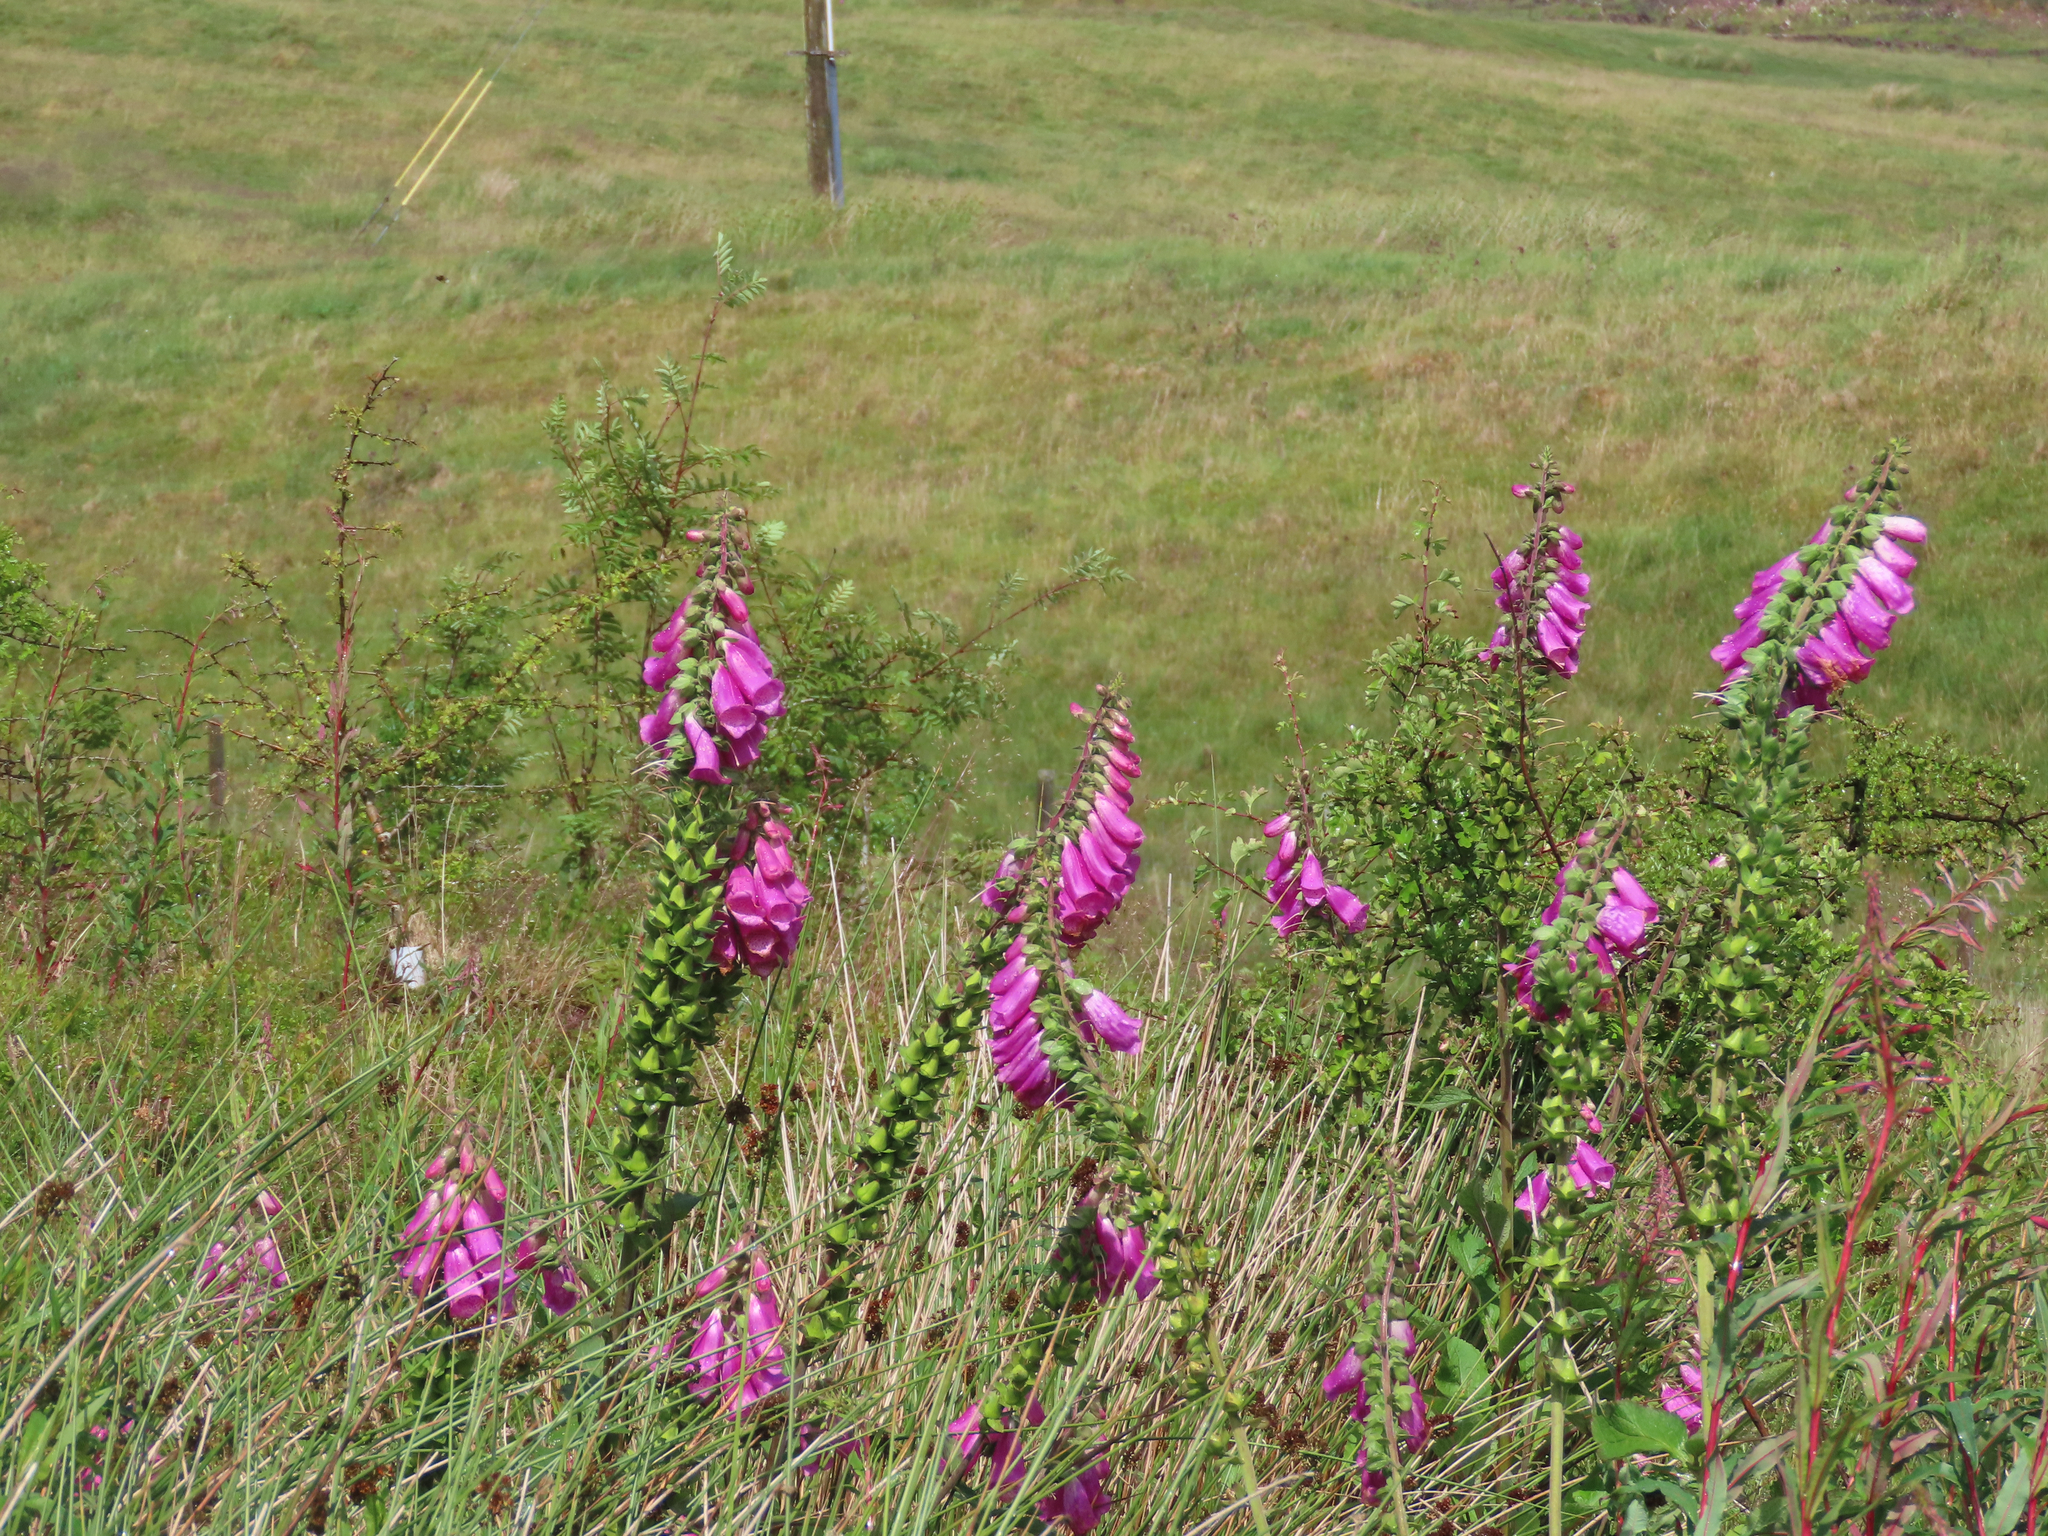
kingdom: Plantae
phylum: Tracheophyta
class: Magnoliopsida
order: Lamiales
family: Plantaginaceae
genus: Digitalis
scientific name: Digitalis purpurea
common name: Foxglove
